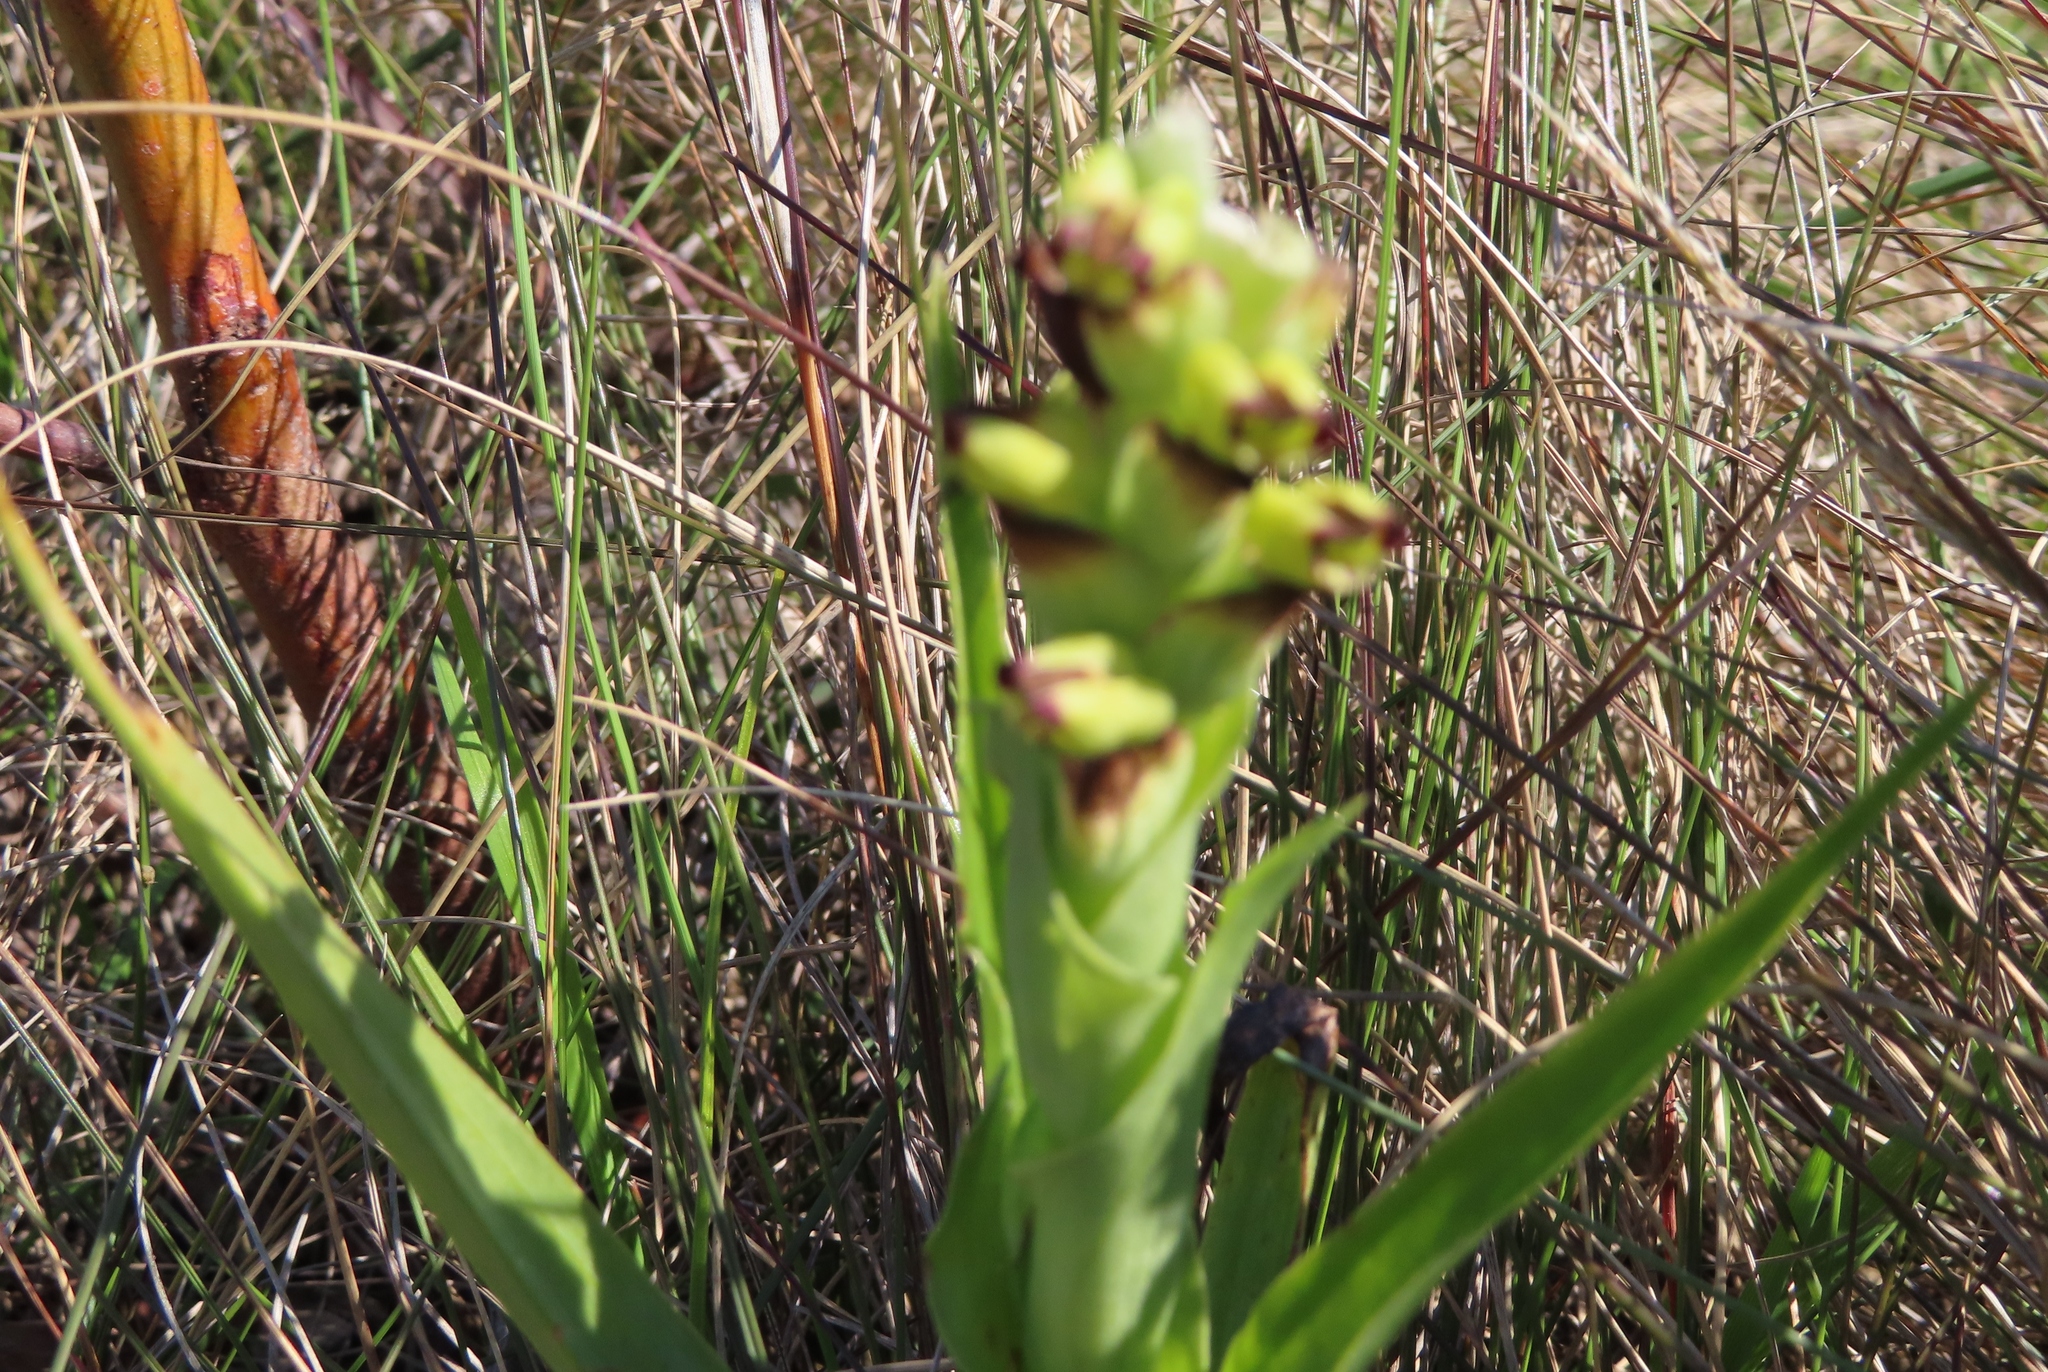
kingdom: Plantae
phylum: Tracheophyta
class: Liliopsida
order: Asparagales
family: Orchidaceae
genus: Corycium
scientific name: Corycium orobanchoides
